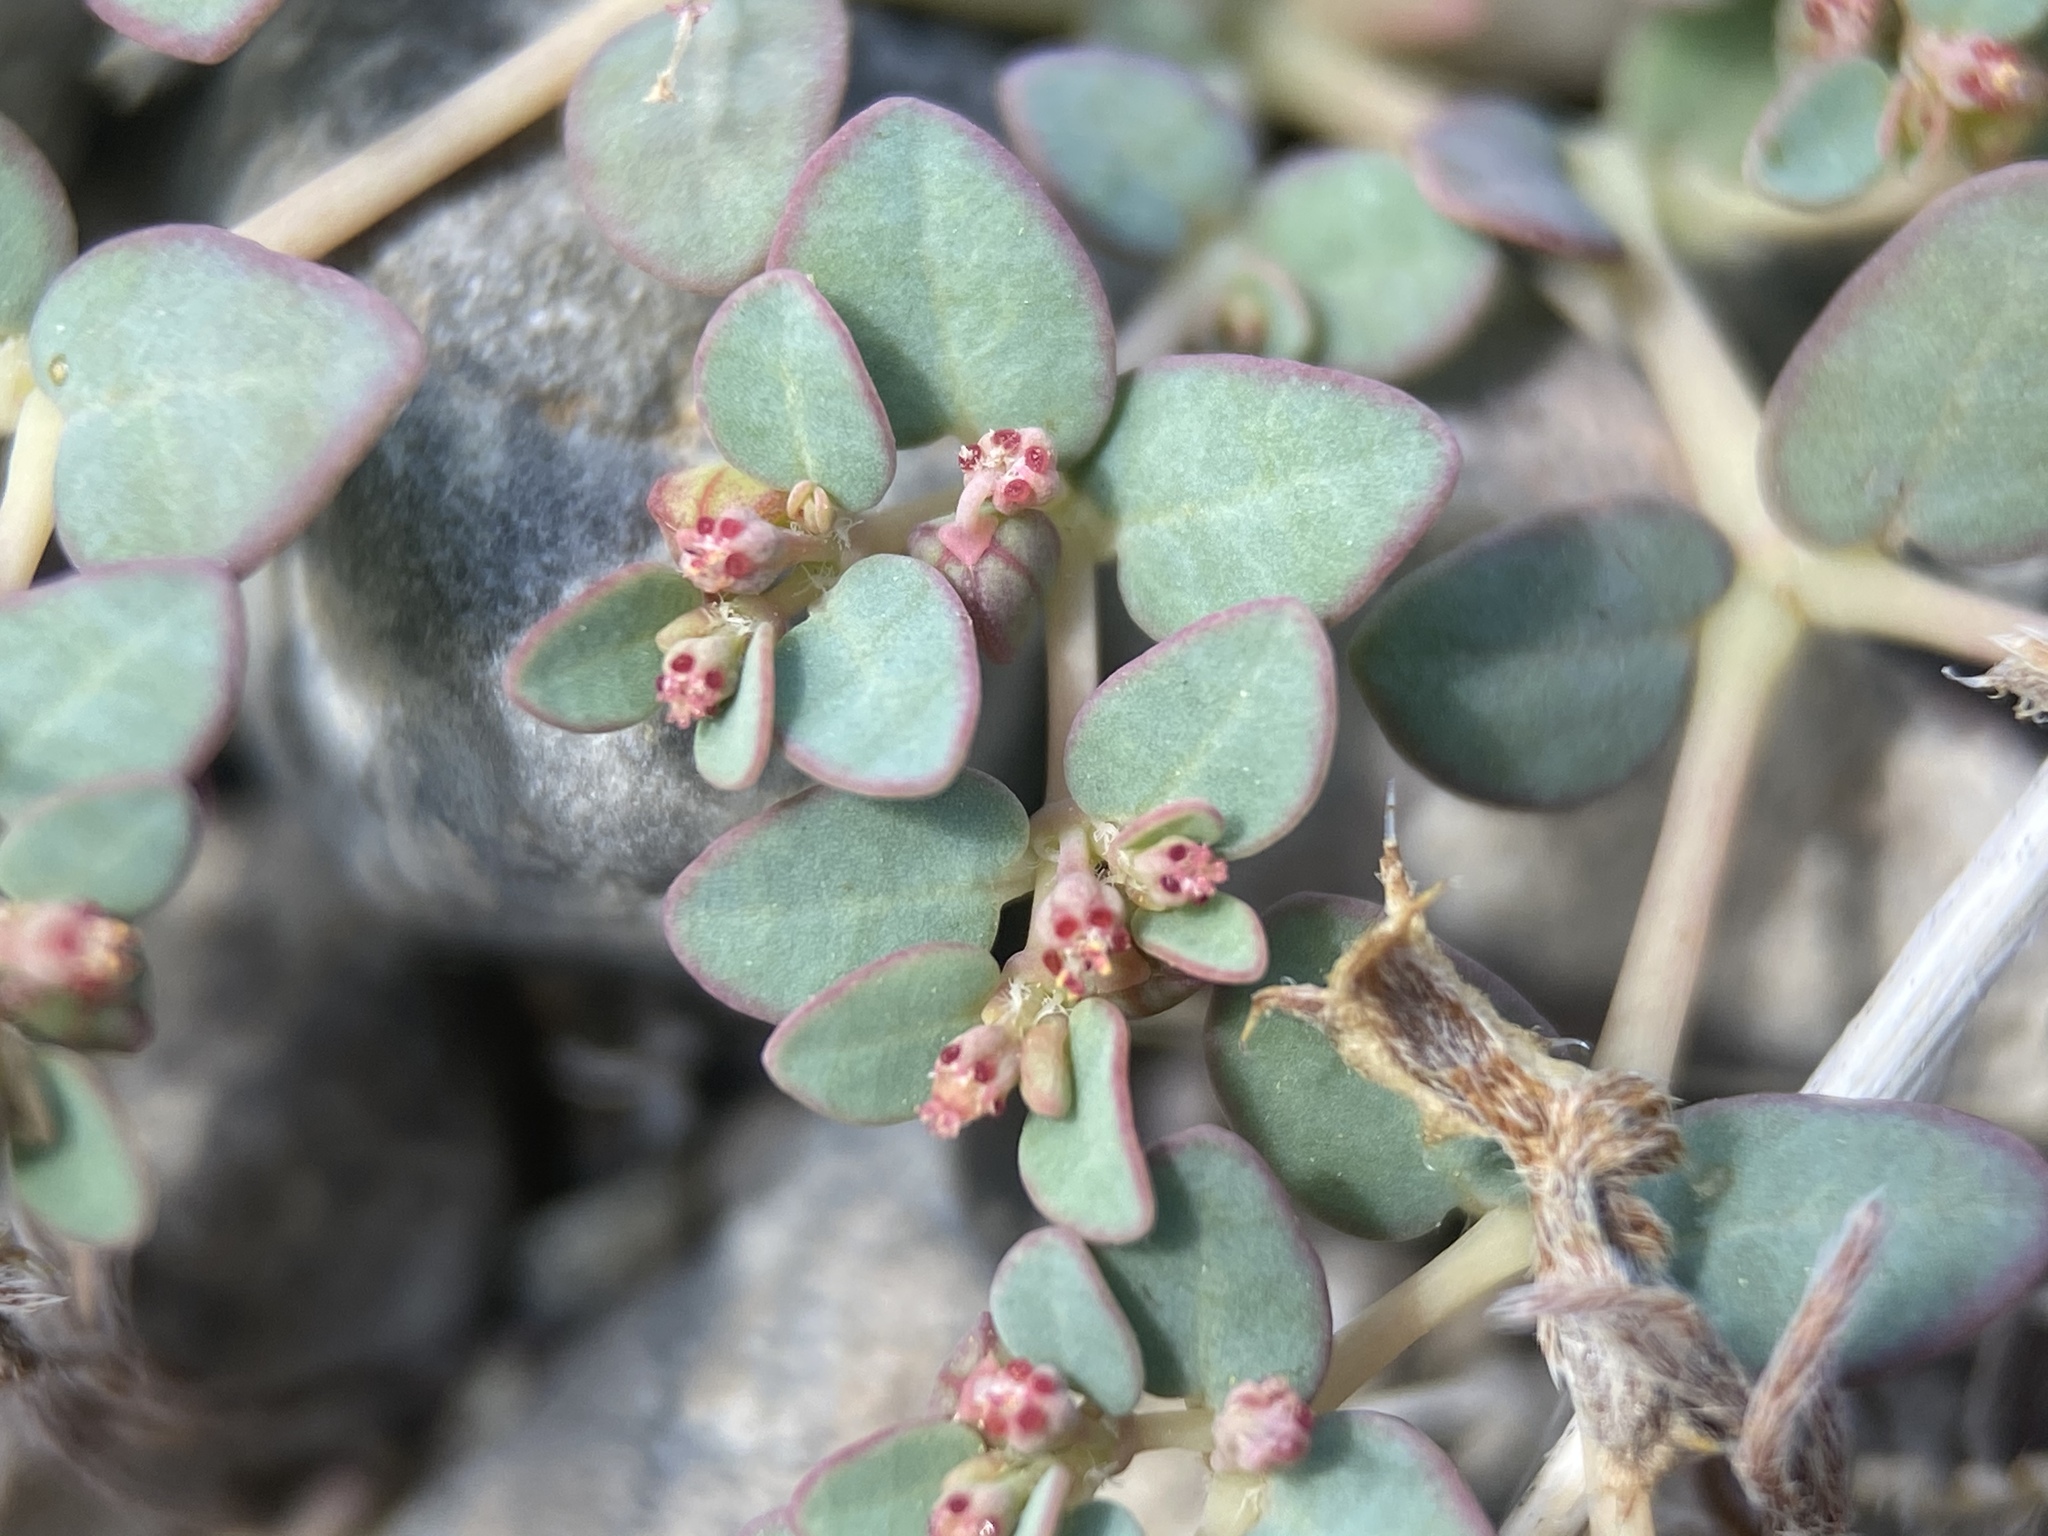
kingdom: Plantae
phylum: Tracheophyta
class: Magnoliopsida
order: Malpighiales
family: Euphorbiaceae
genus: Euphorbia
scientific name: Euphorbia micromera
